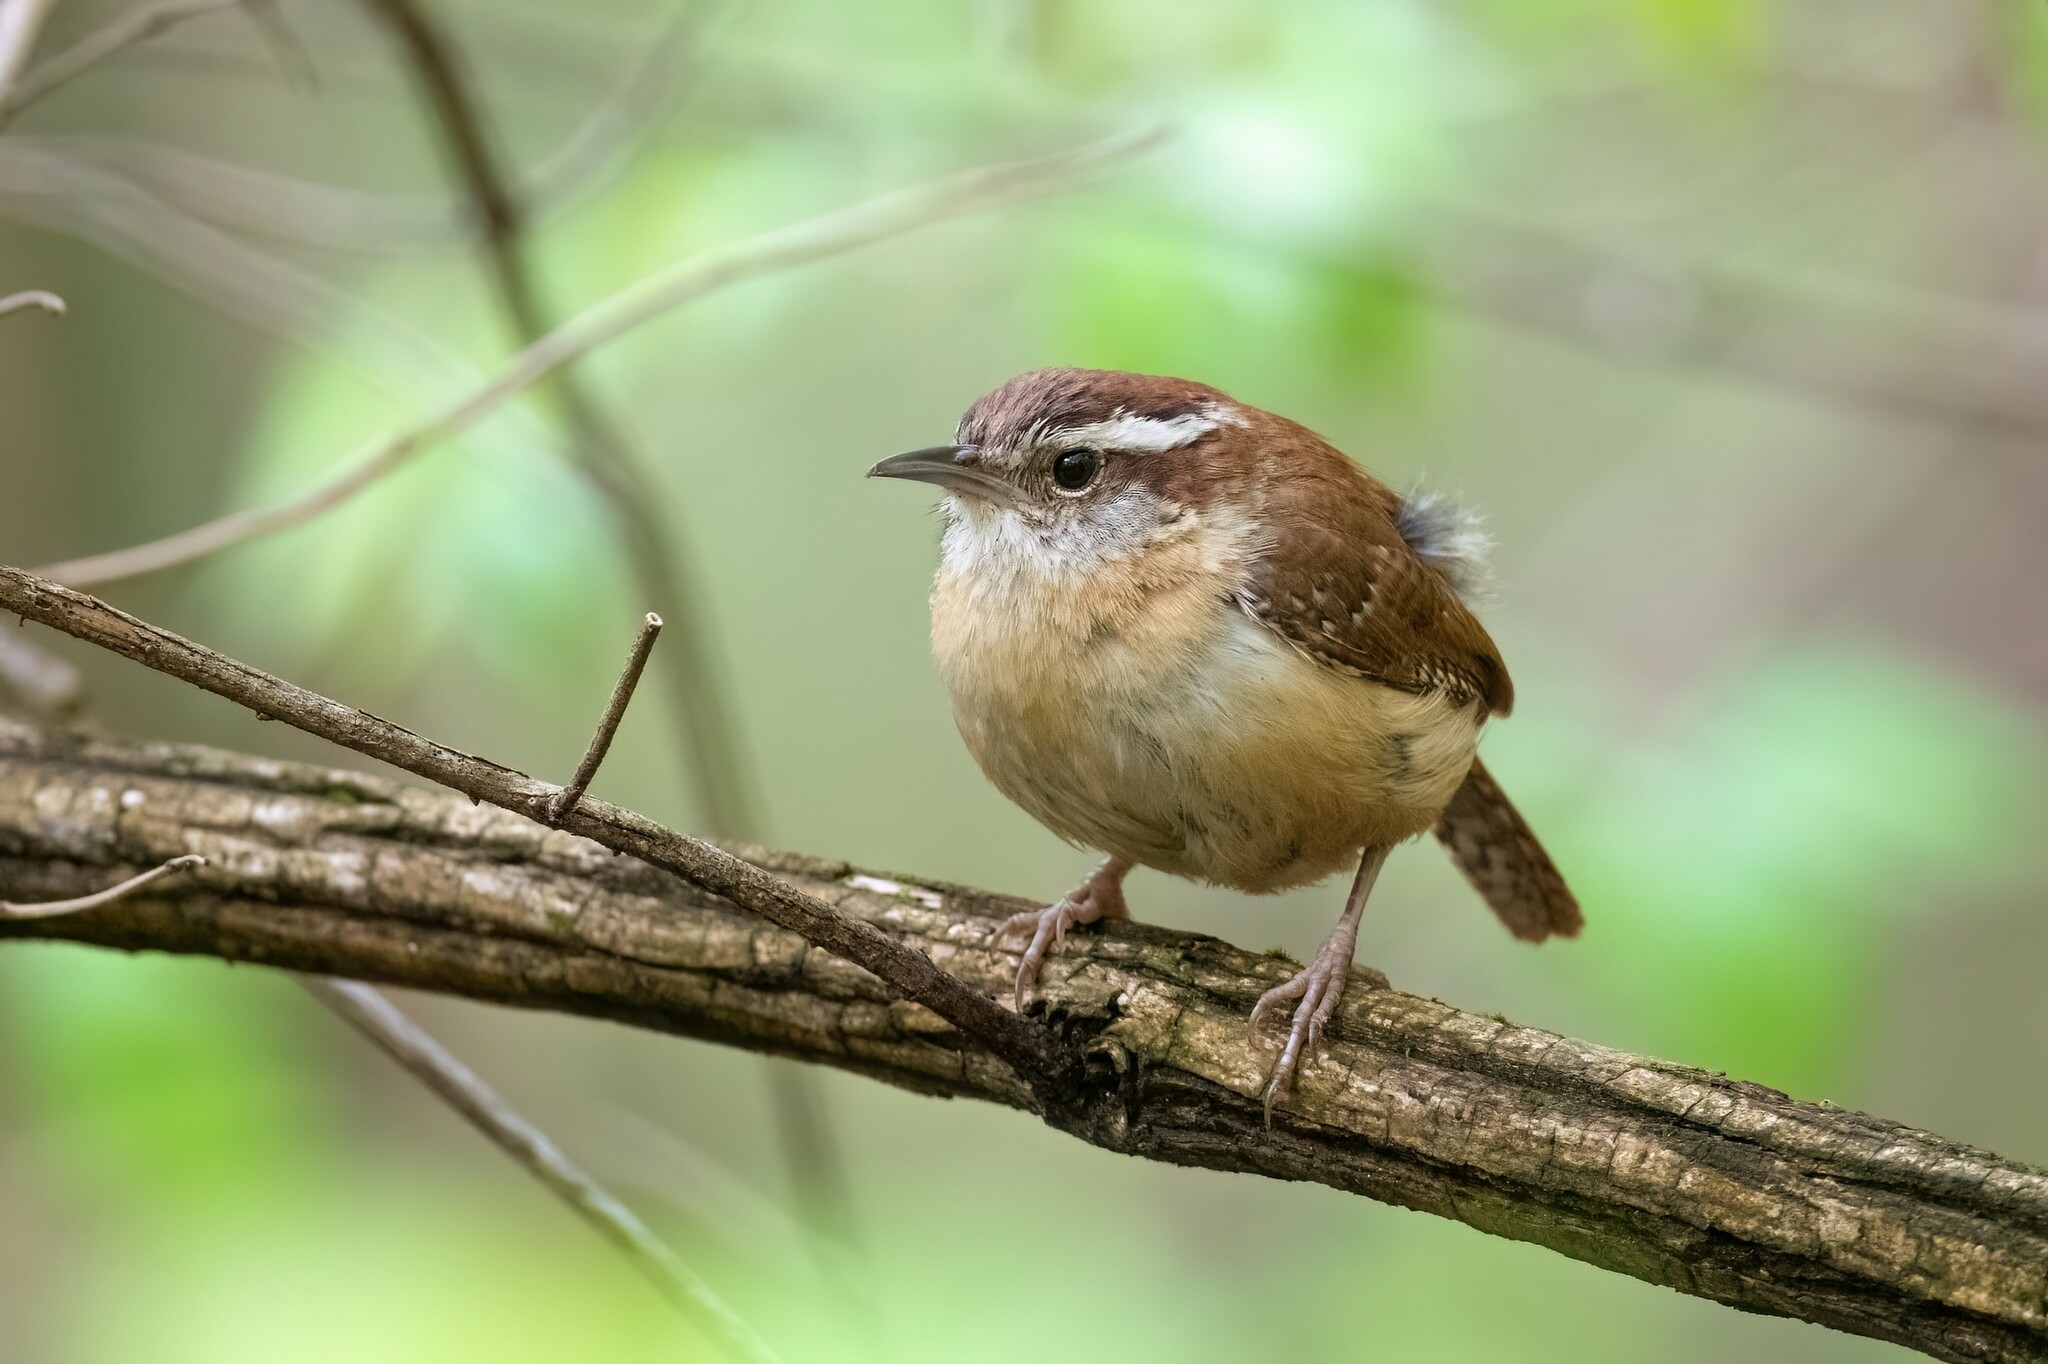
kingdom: Animalia
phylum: Chordata
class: Aves
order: Passeriformes
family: Troglodytidae
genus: Thryothorus
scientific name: Thryothorus ludovicianus
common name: Carolina wren
